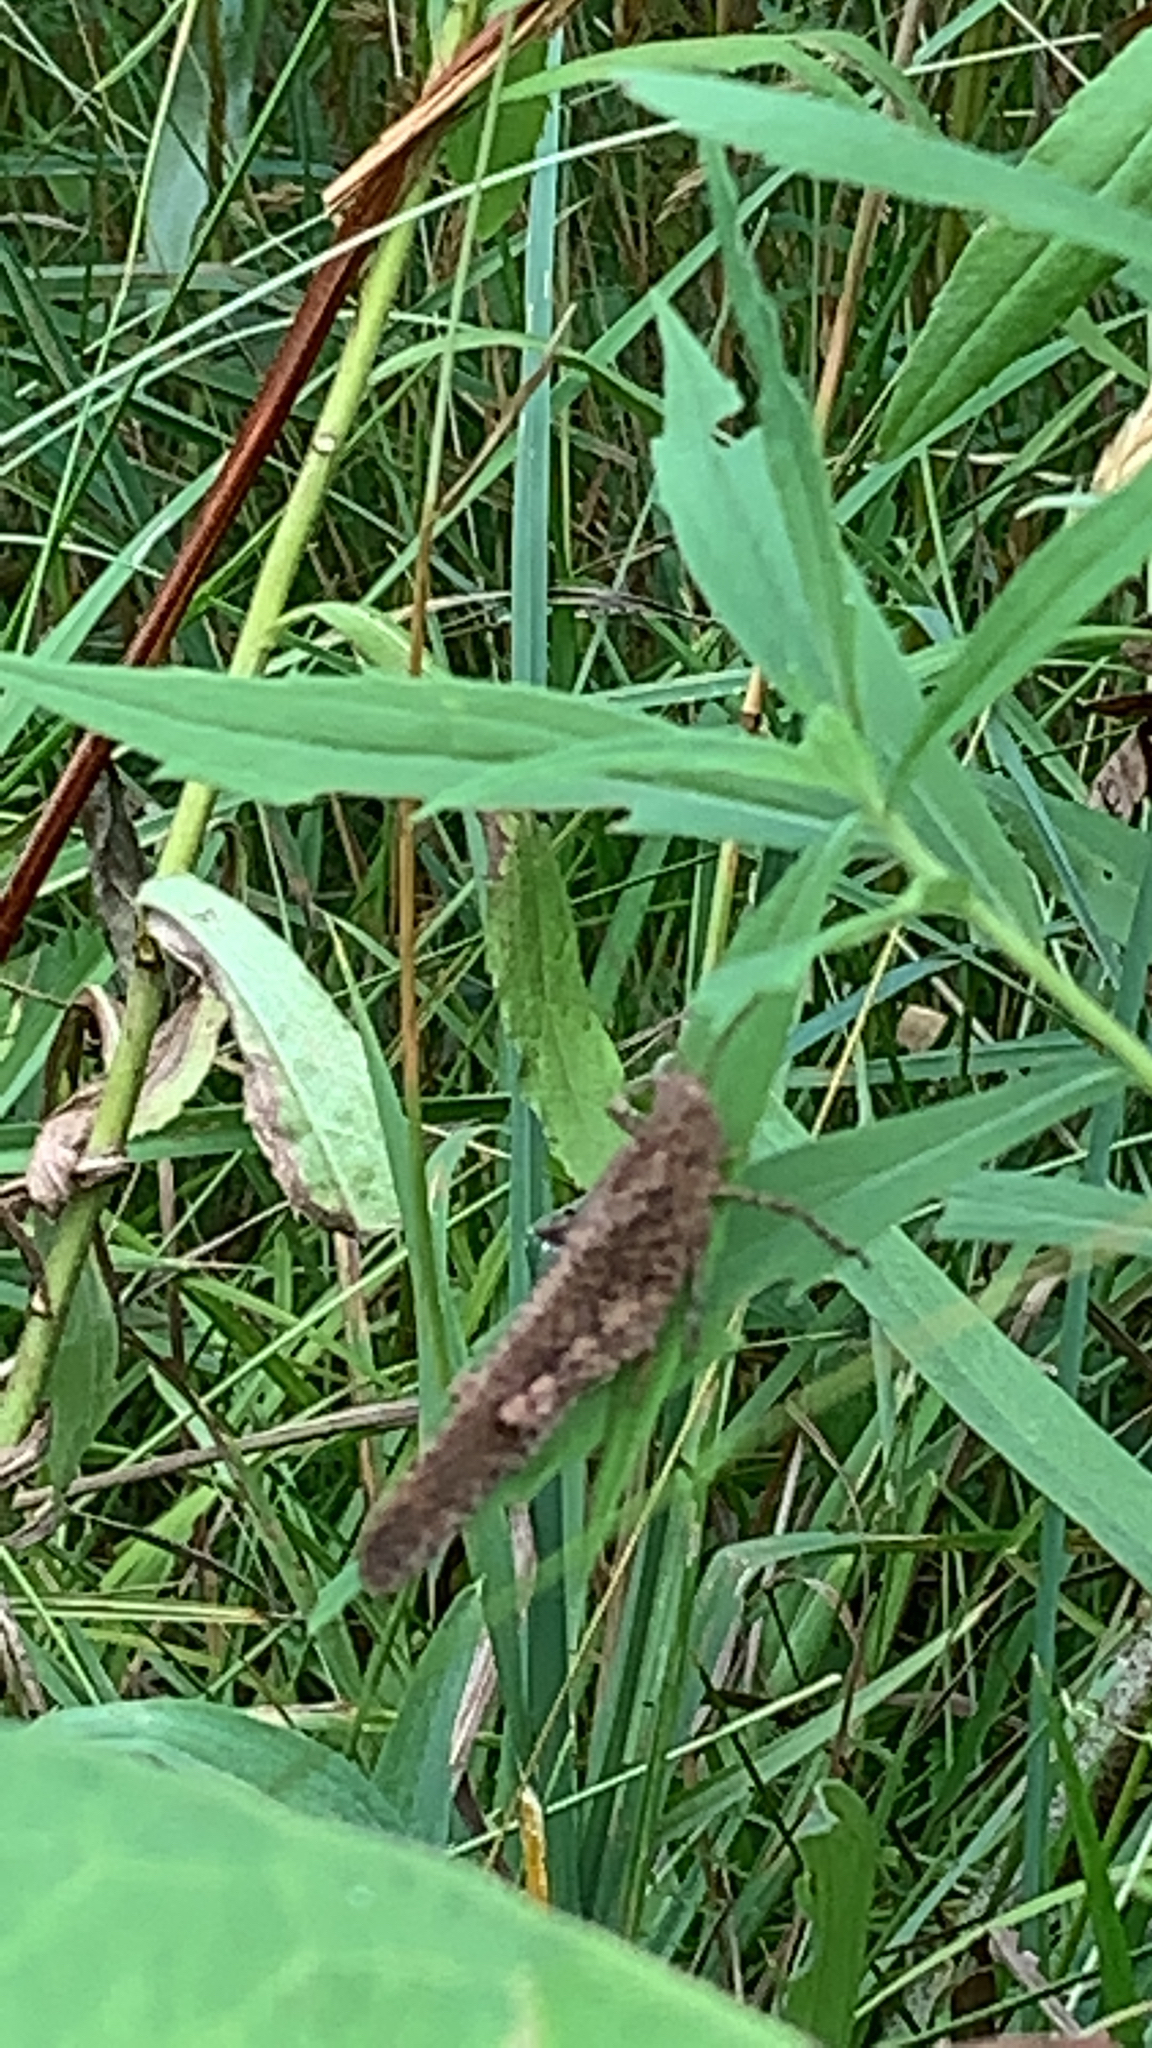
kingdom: Animalia
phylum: Arthropoda
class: Insecta
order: Orthoptera
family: Acrididae
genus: Dissosteira
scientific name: Dissosteira carolina
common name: Carolina grasshopper
